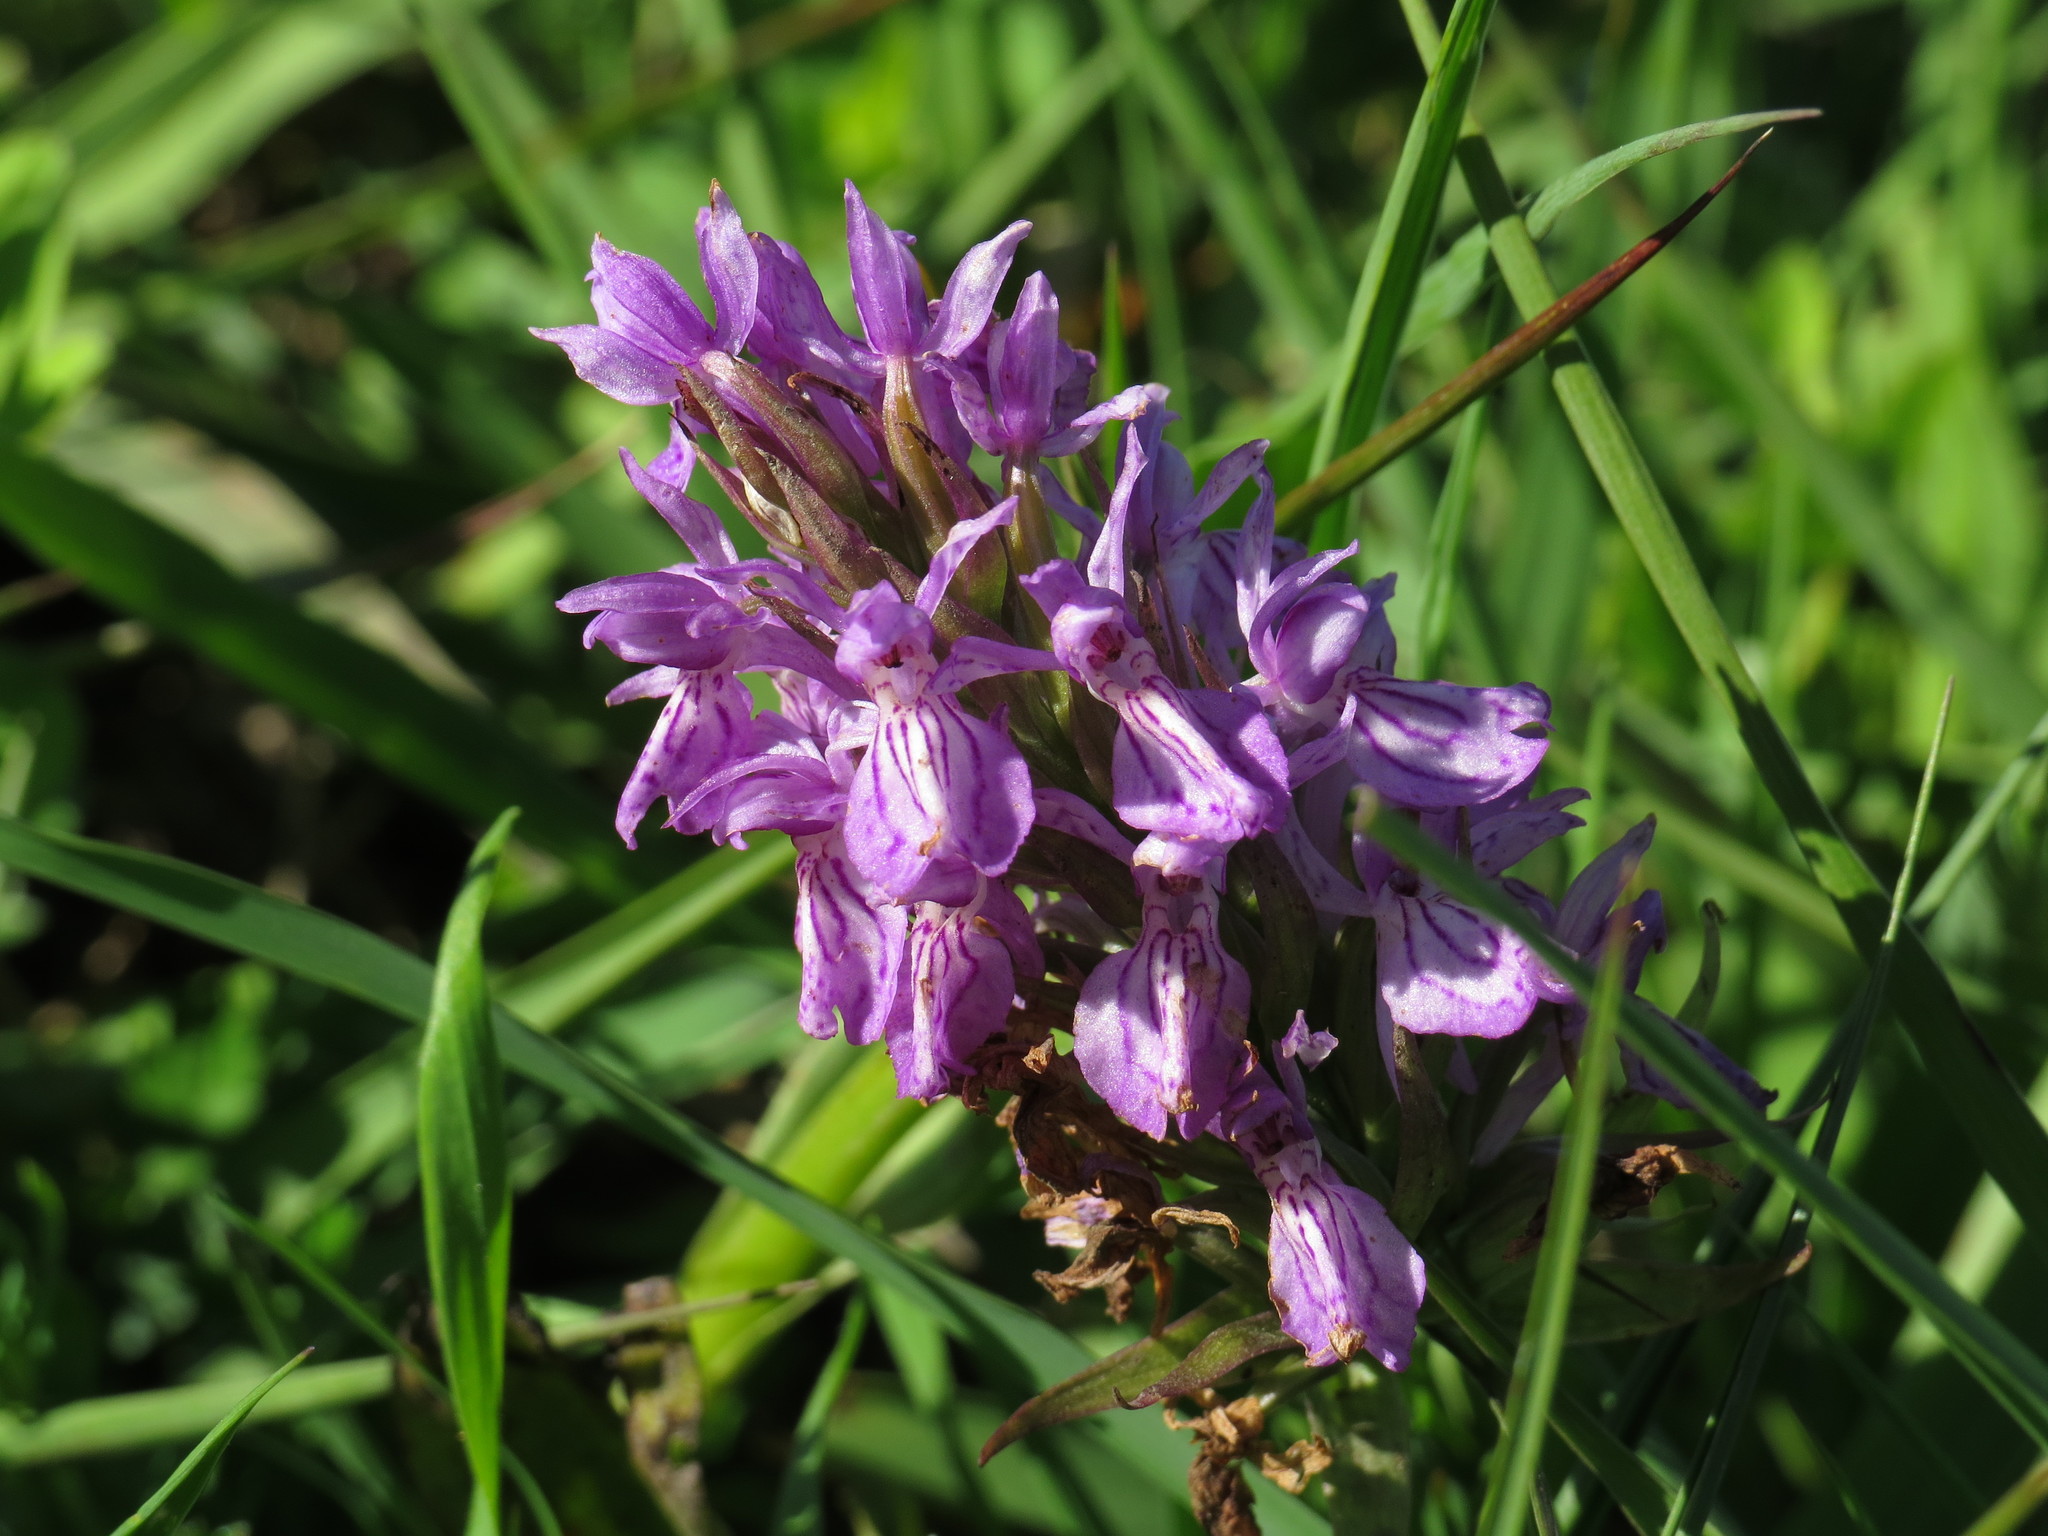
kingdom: Plantae
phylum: Tracheophyta
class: Liliopsida
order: Asparagales
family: Orchidaceae
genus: Dactylorhiza
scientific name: Dactylorhiza maculata
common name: Heath spotted-orchid
